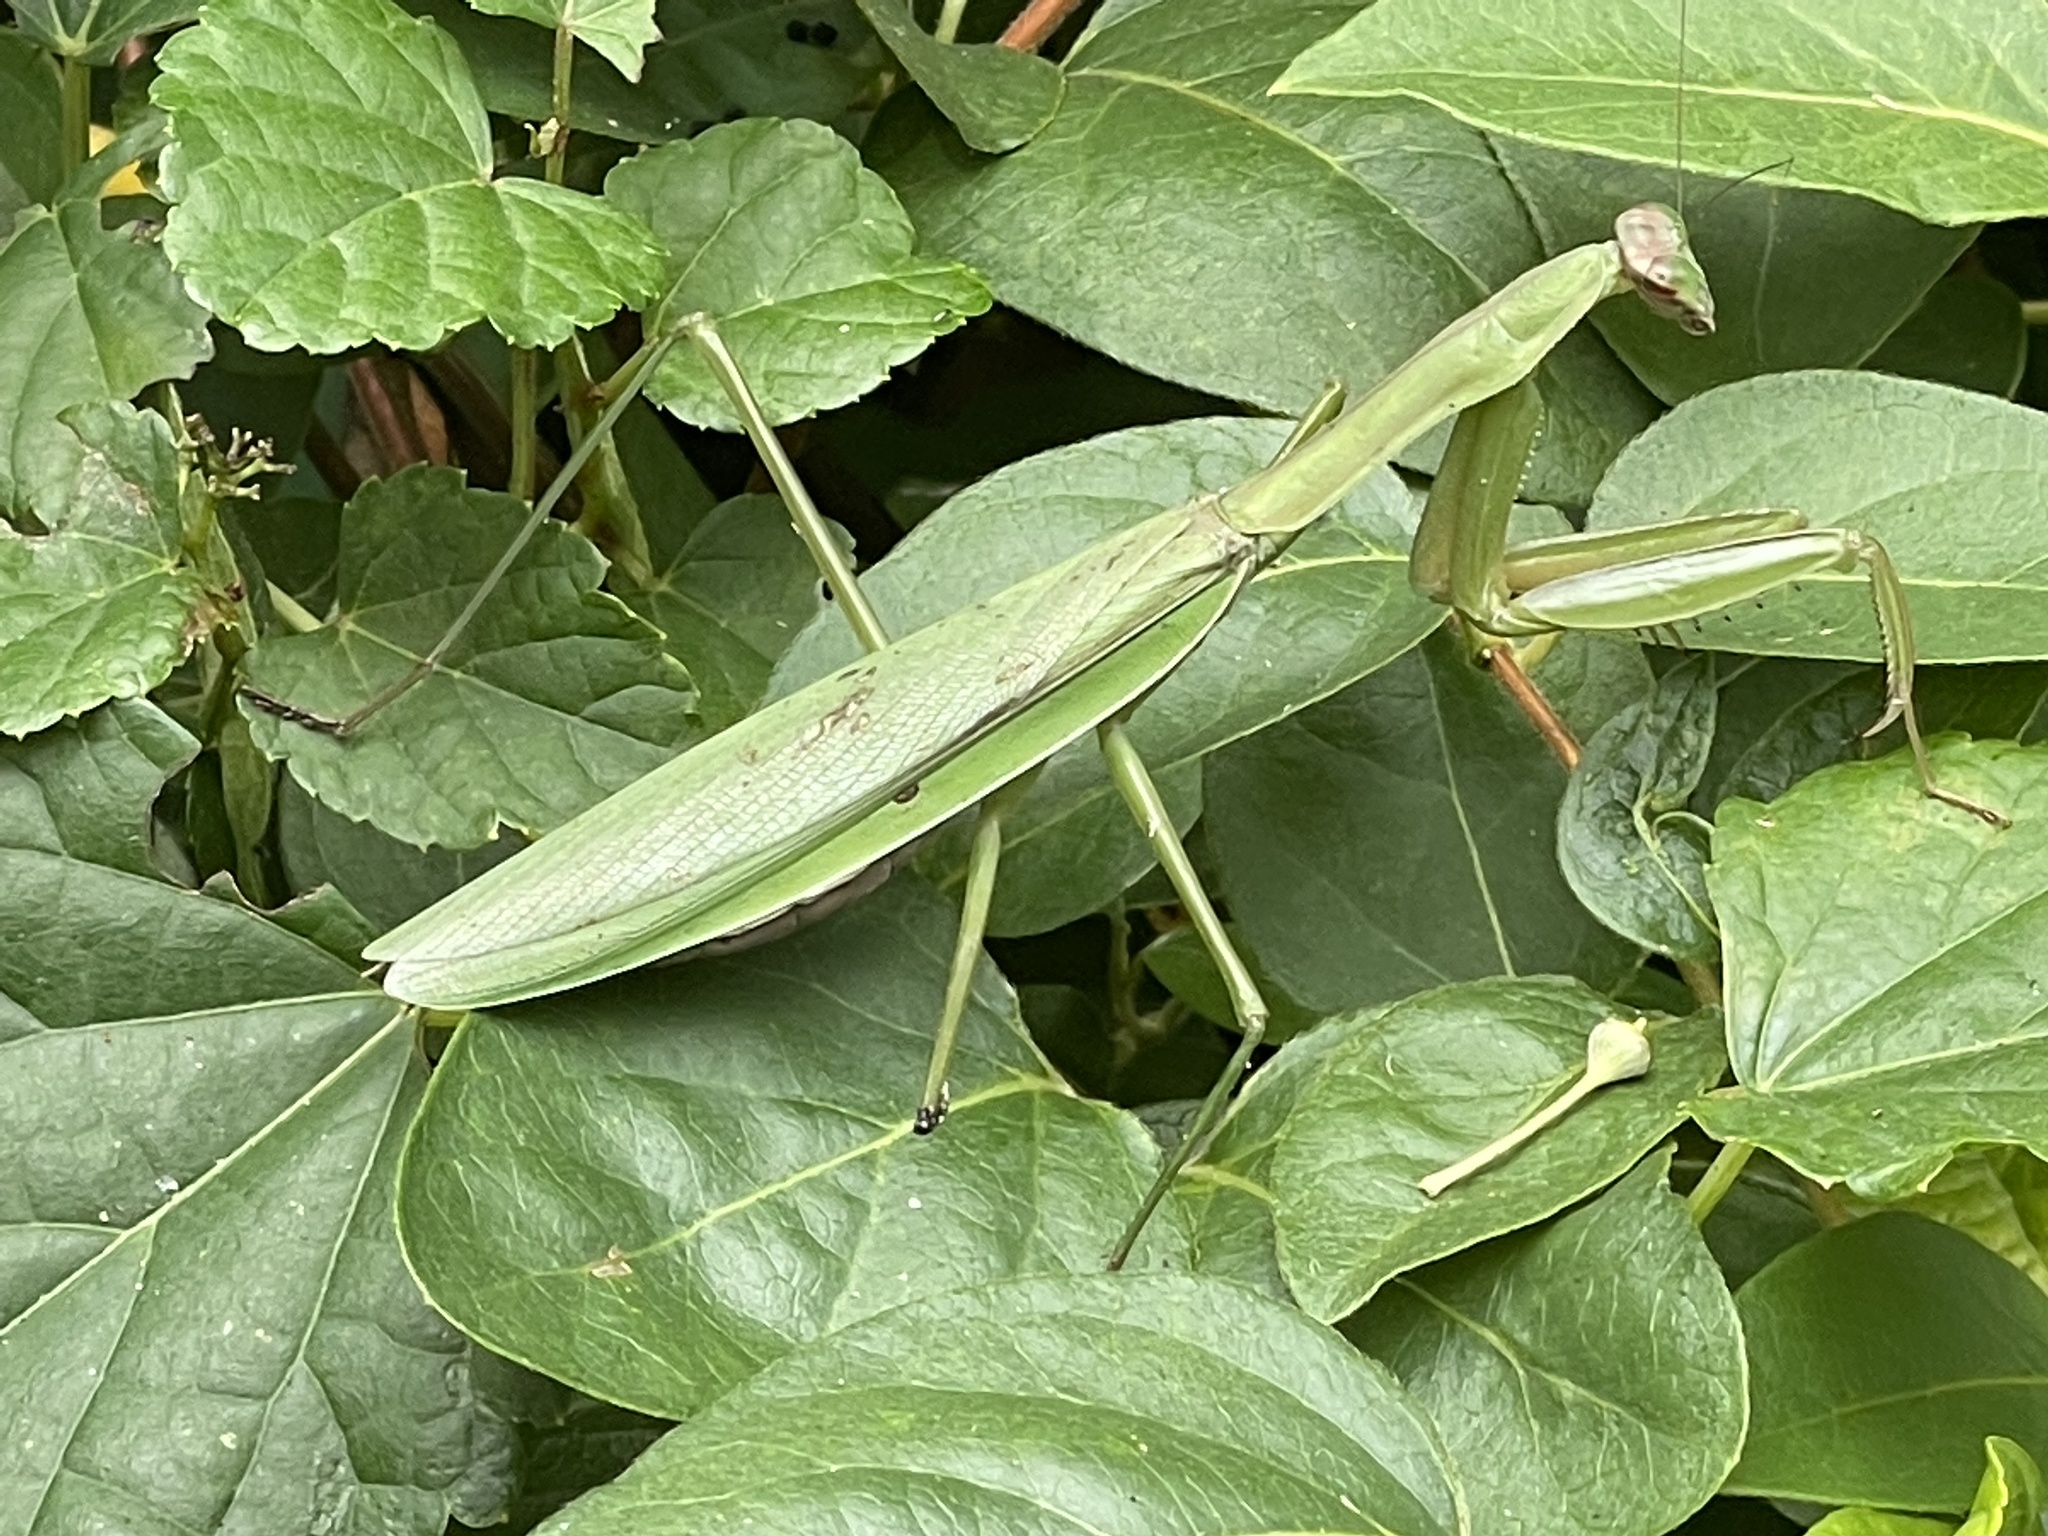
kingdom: Animalia
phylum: Arthropoda
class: Insecta
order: Mantodea
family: Mantidae
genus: Tenodera
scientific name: Tenodera sinensis
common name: Chinese mantis
